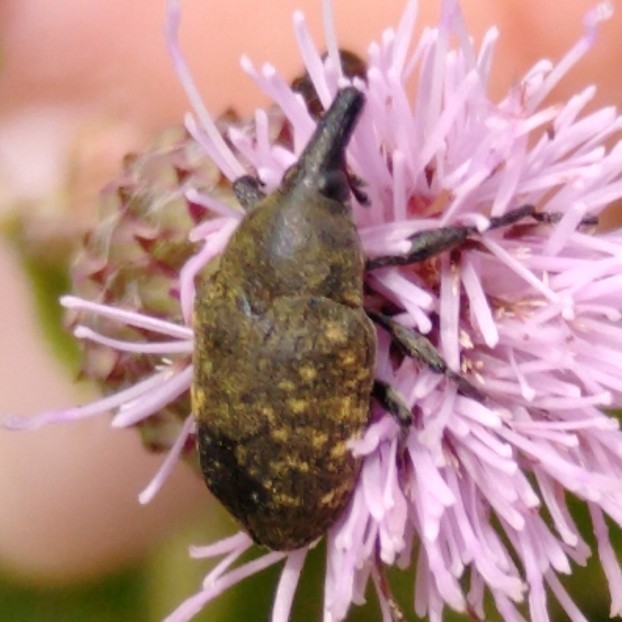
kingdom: Animalia
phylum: Arthropoda
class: Insecta
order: Coleoptera
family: Curculionidae
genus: Larinus
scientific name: Larinus turbinatus
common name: Weevil
